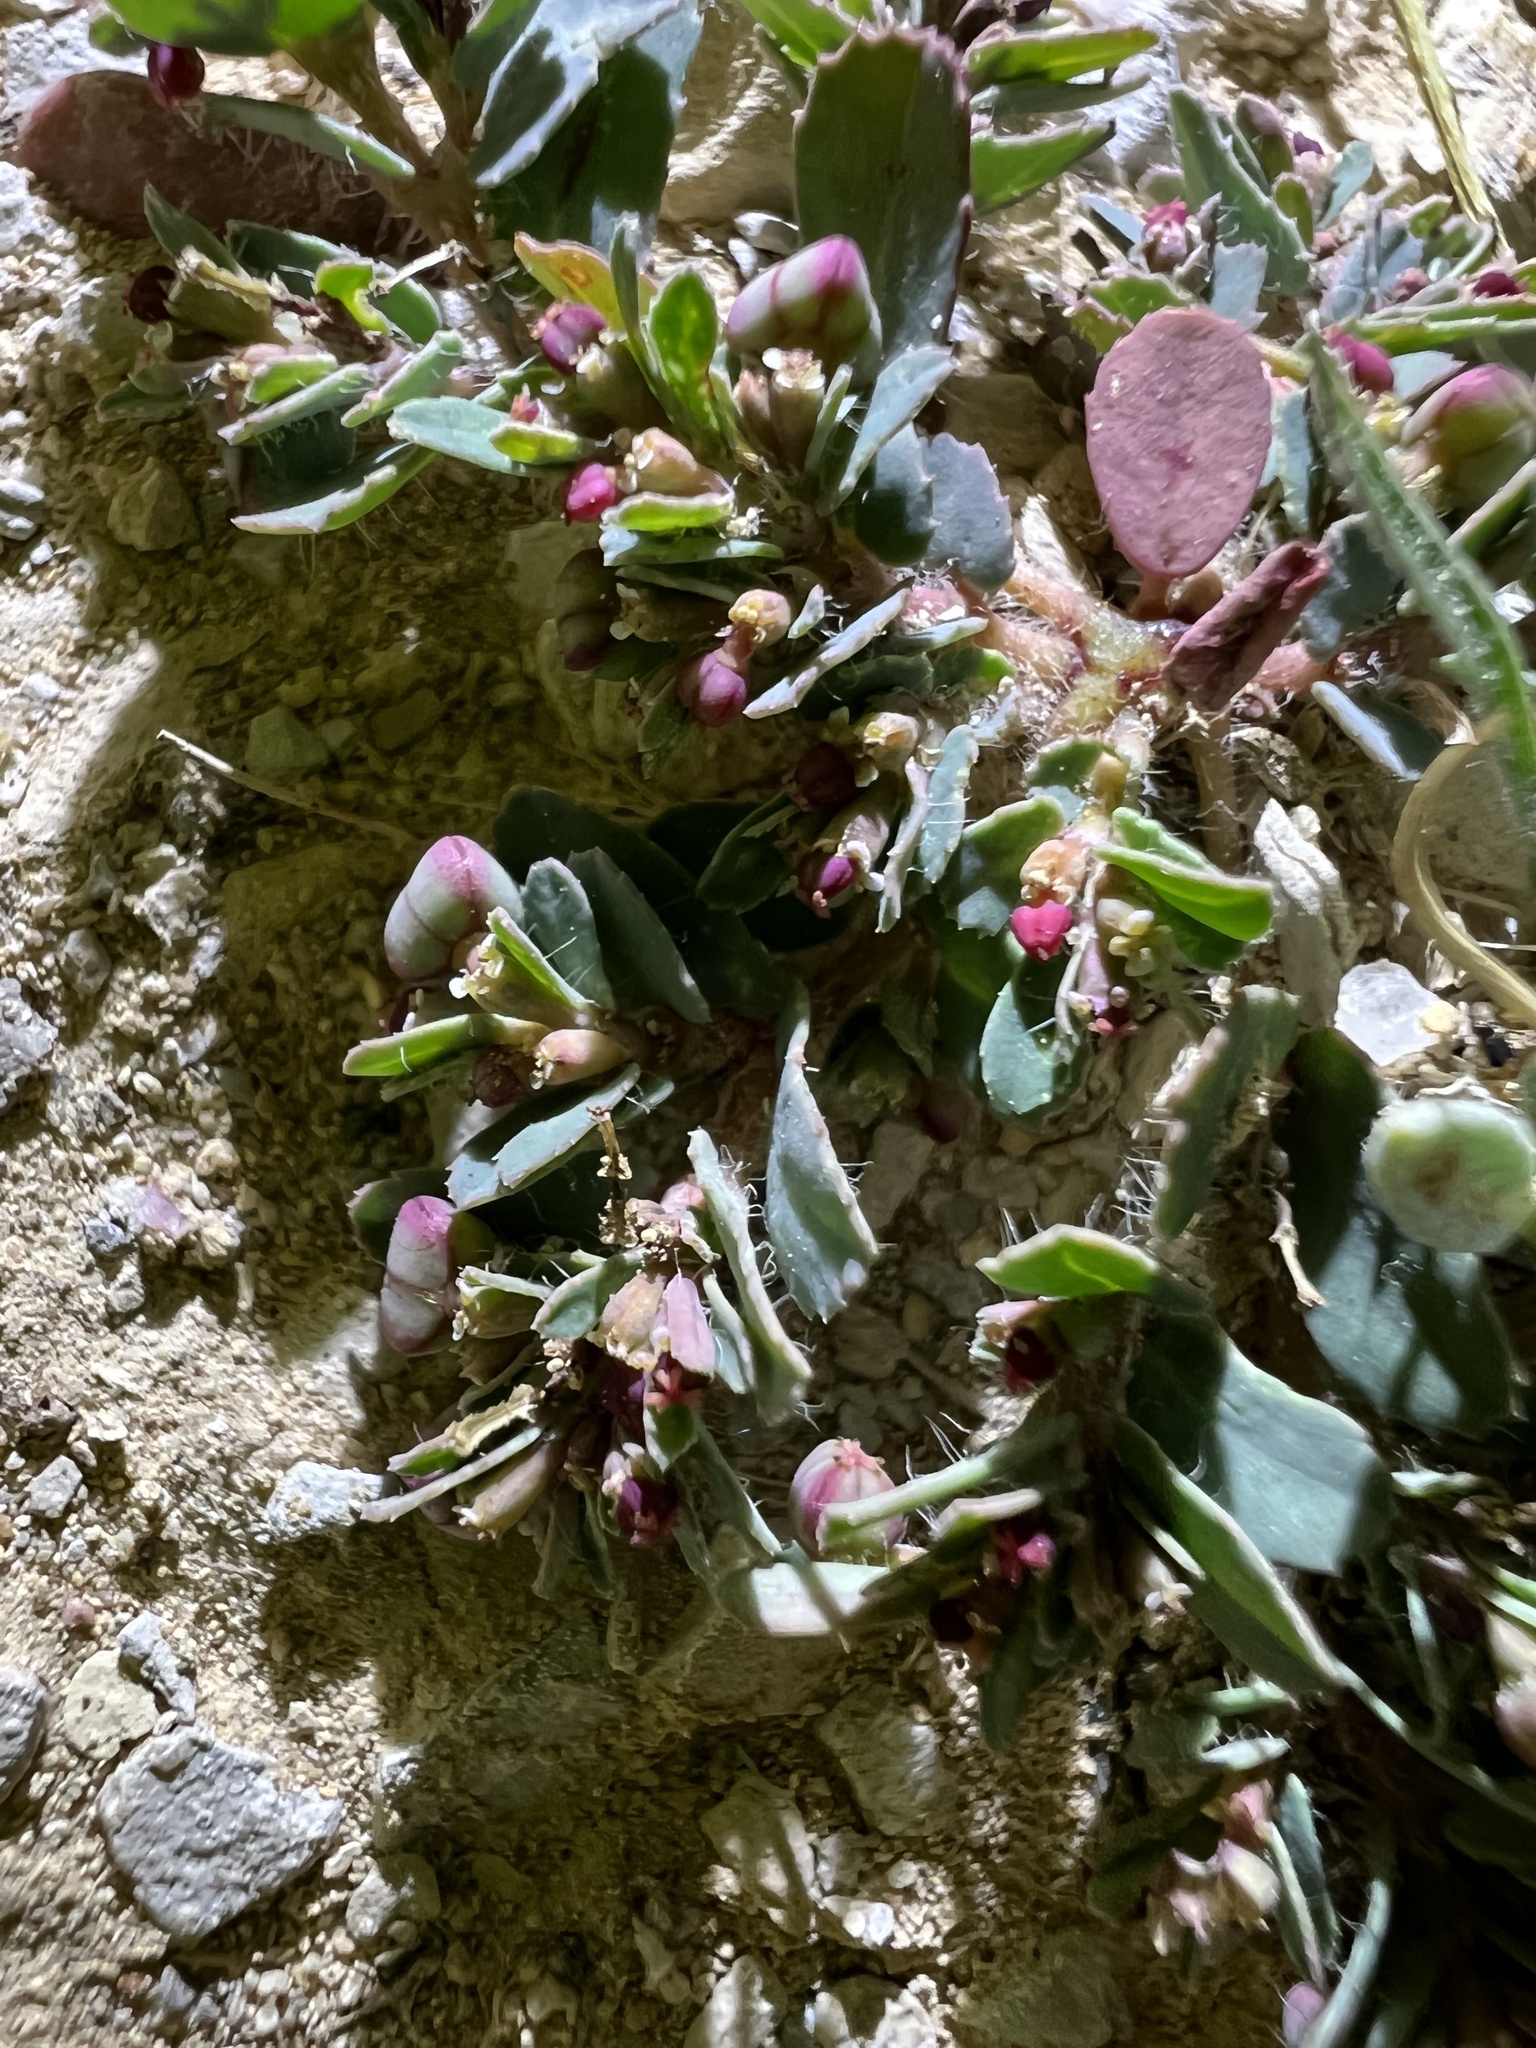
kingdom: Plantae
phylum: Tracheophyta
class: Magnoliopsida
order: Malpighiales
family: Euphorbiaceae
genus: Euphorbia
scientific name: Euphorbia serrula
